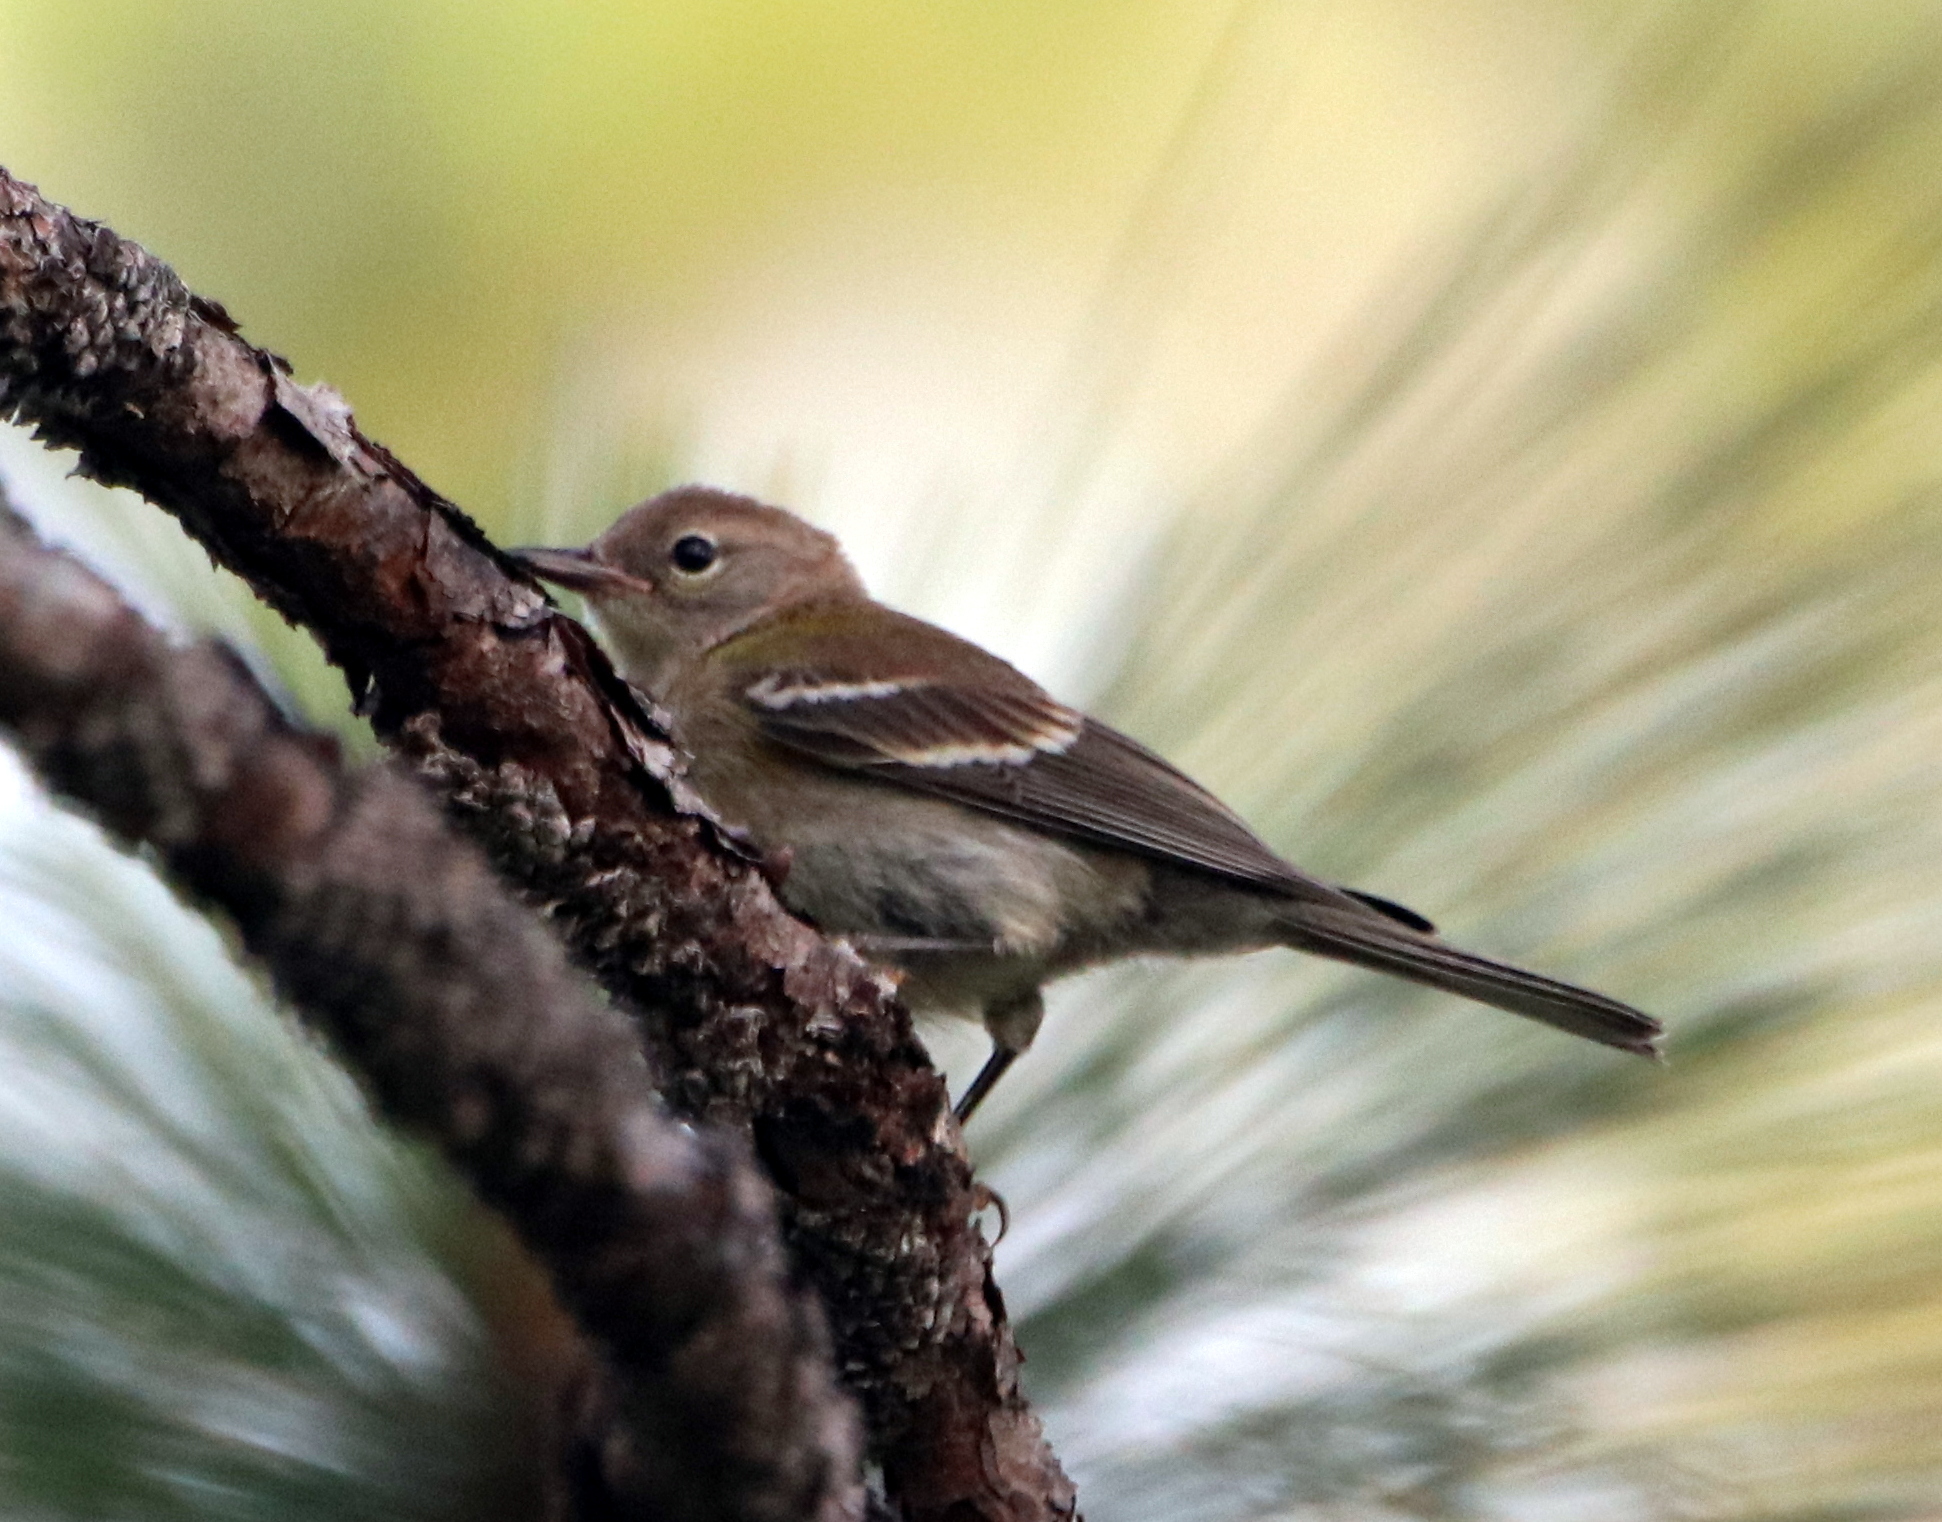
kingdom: Animalia
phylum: Chordata
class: Aves
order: Passeriformes
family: Parulidae
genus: Setophaga
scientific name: Setophaga pinus
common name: Pine warbler
